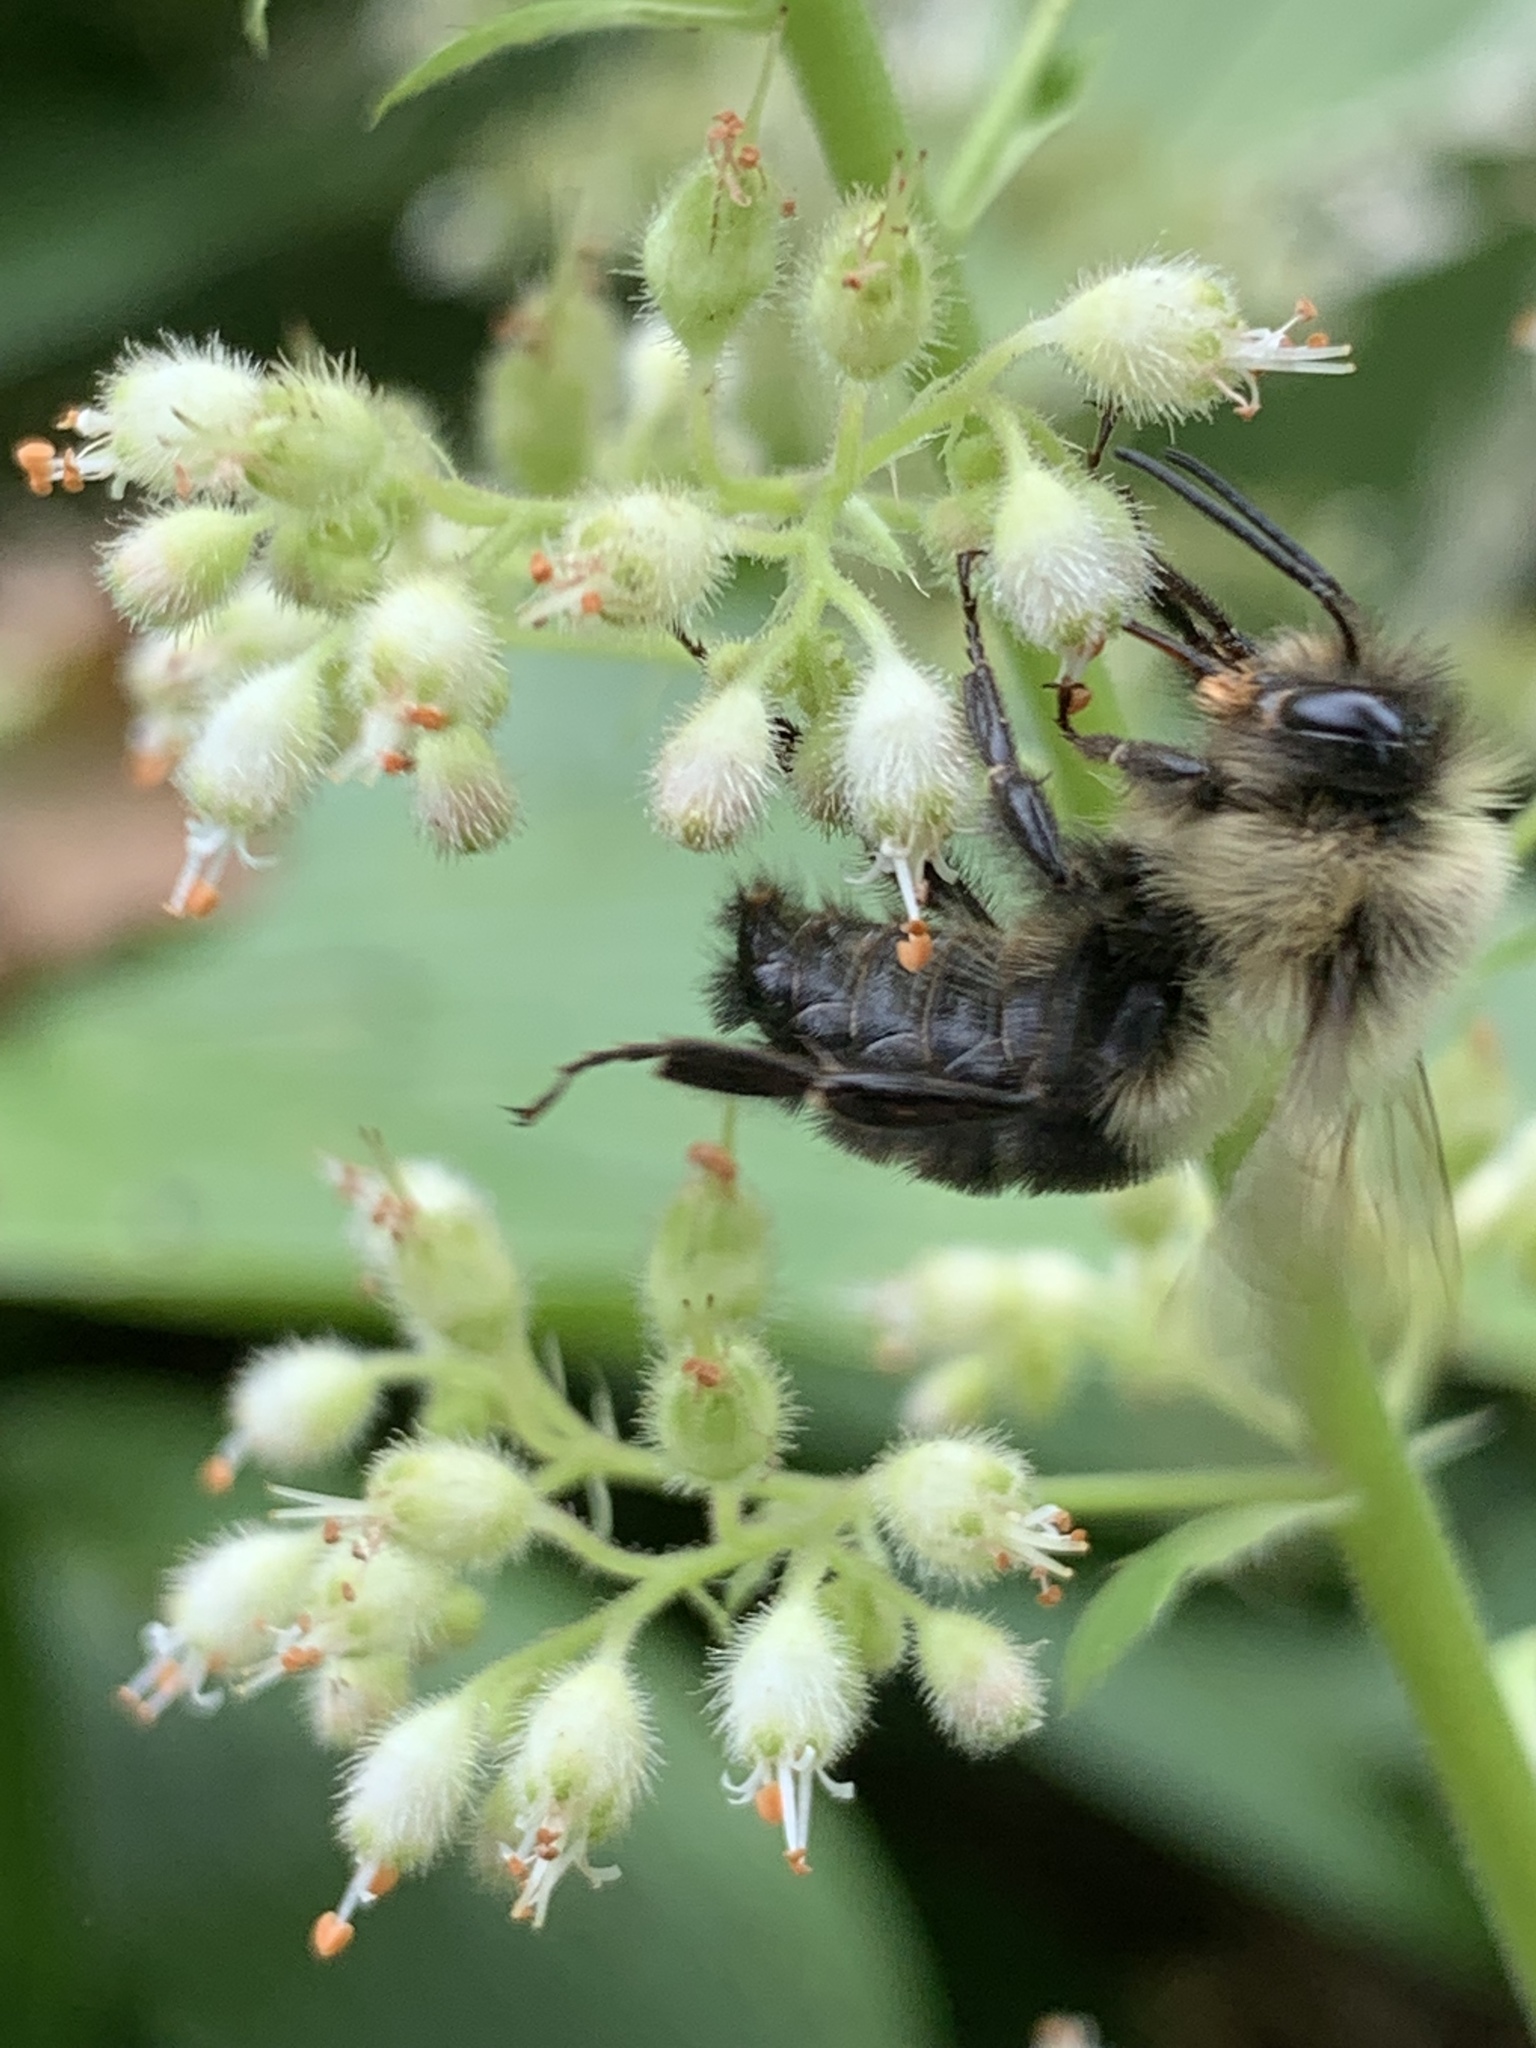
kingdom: Animalia
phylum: Arthropoda
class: Insecta
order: Hymenoptera
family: Apidae
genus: Bombus
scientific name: Bombus impatiens
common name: Common eastern bumble bee
